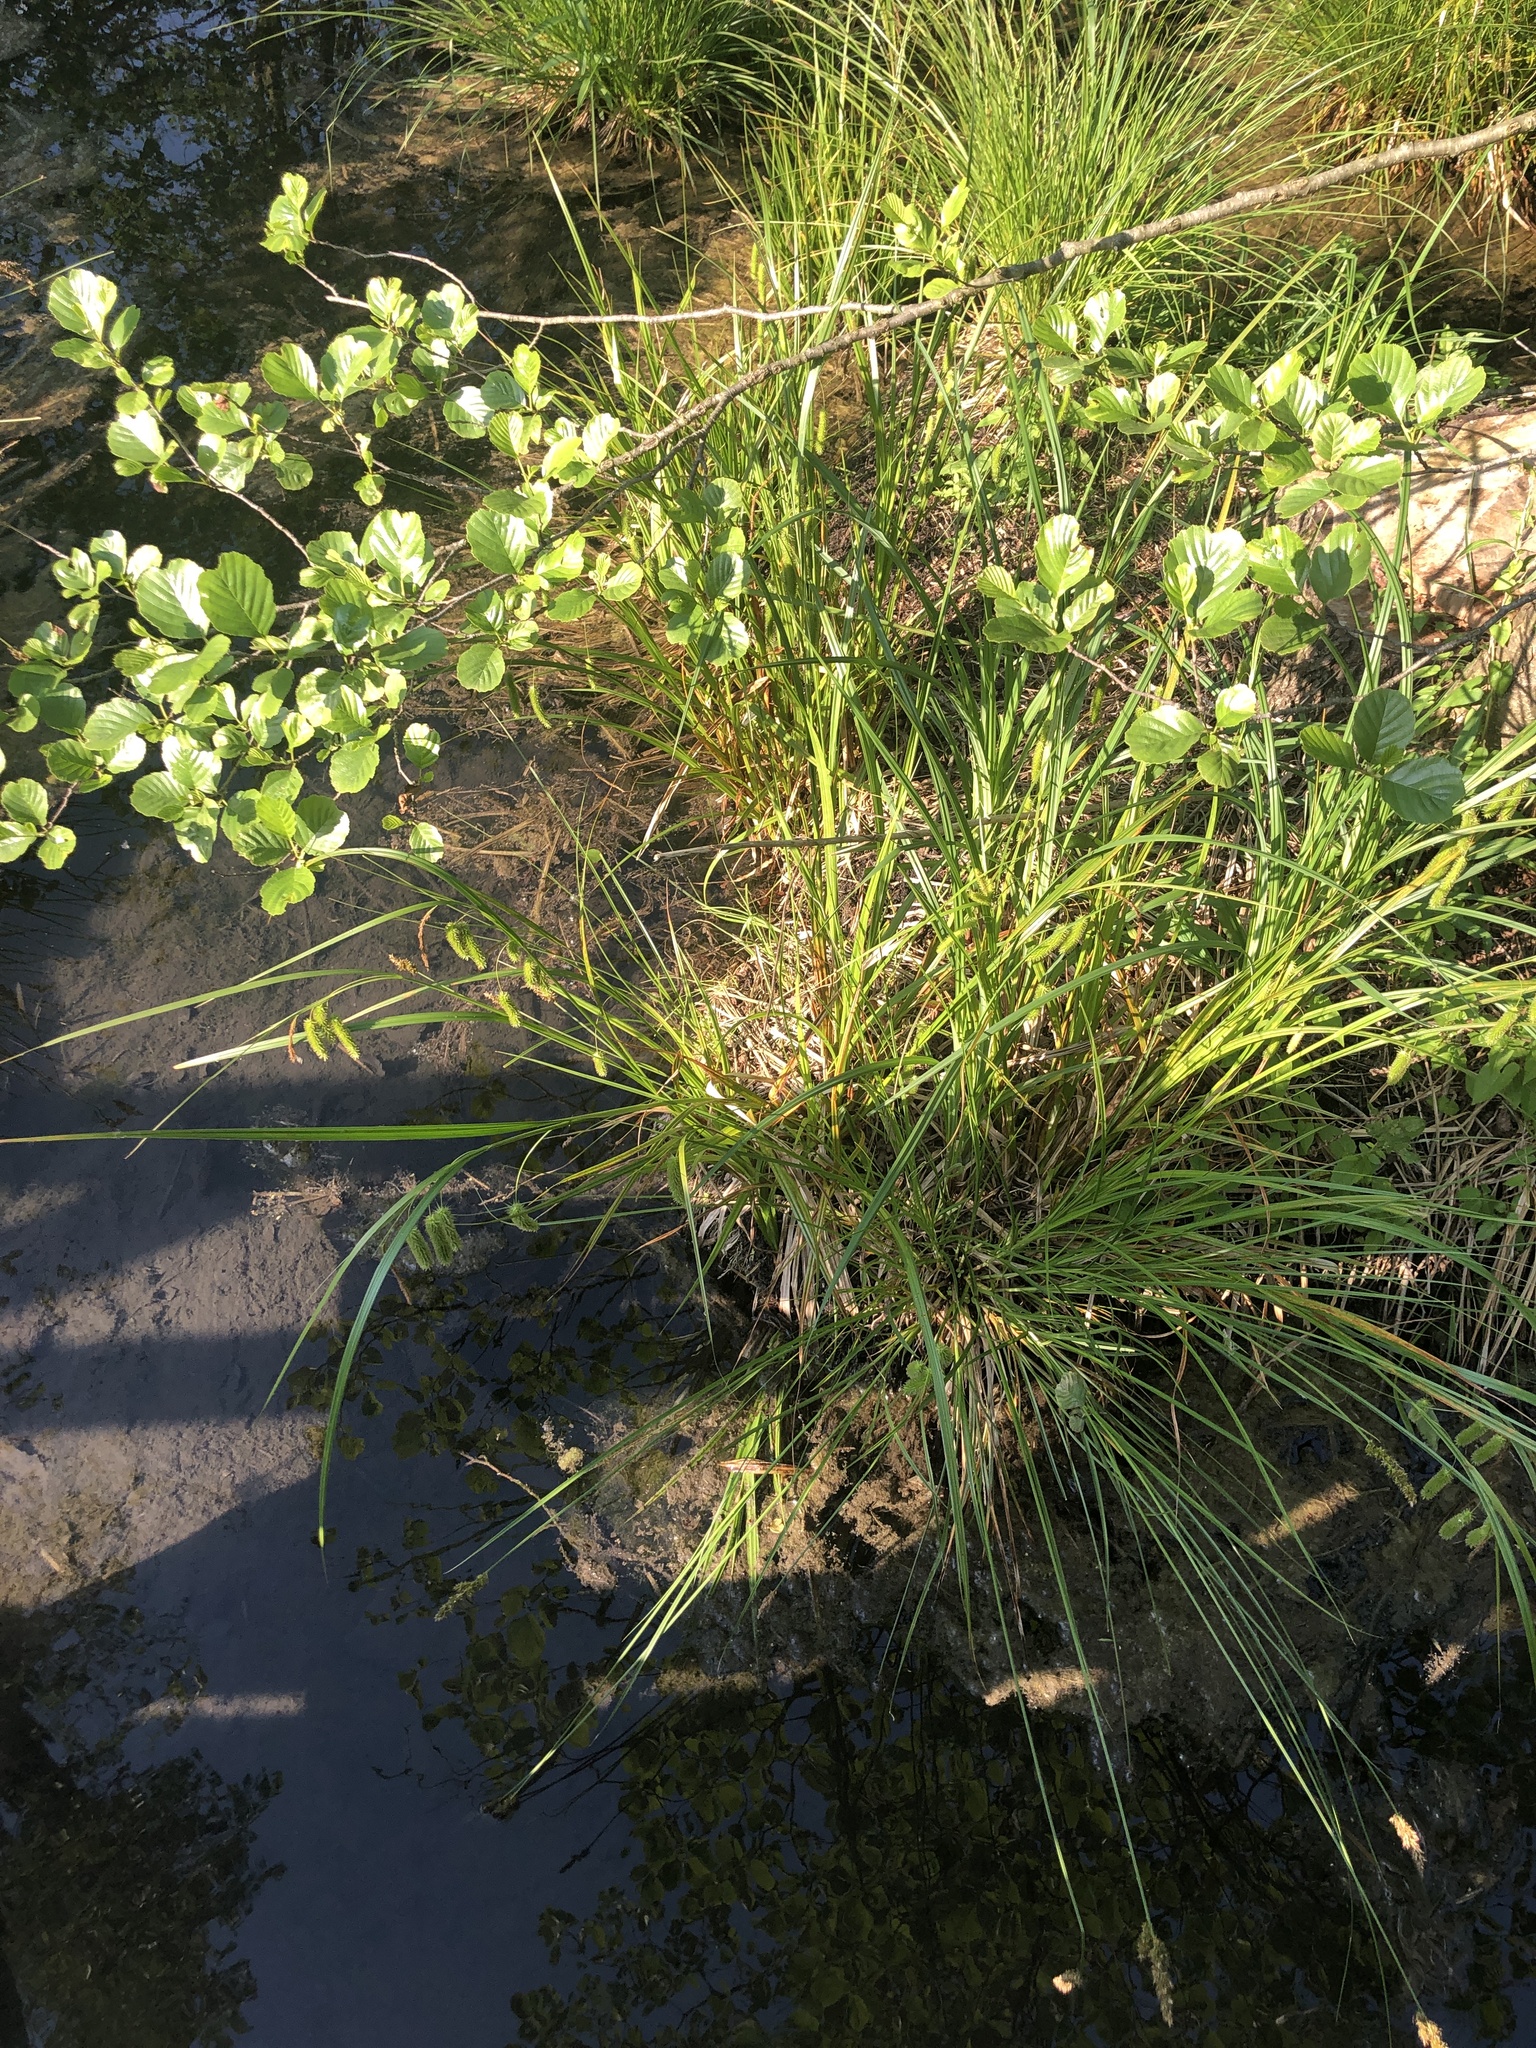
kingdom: Plantae
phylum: Tracheophyta
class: Liliopsida
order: Poales
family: Cyperaceae
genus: Carex
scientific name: Carex pseudocyperus
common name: Cyperus sedge
